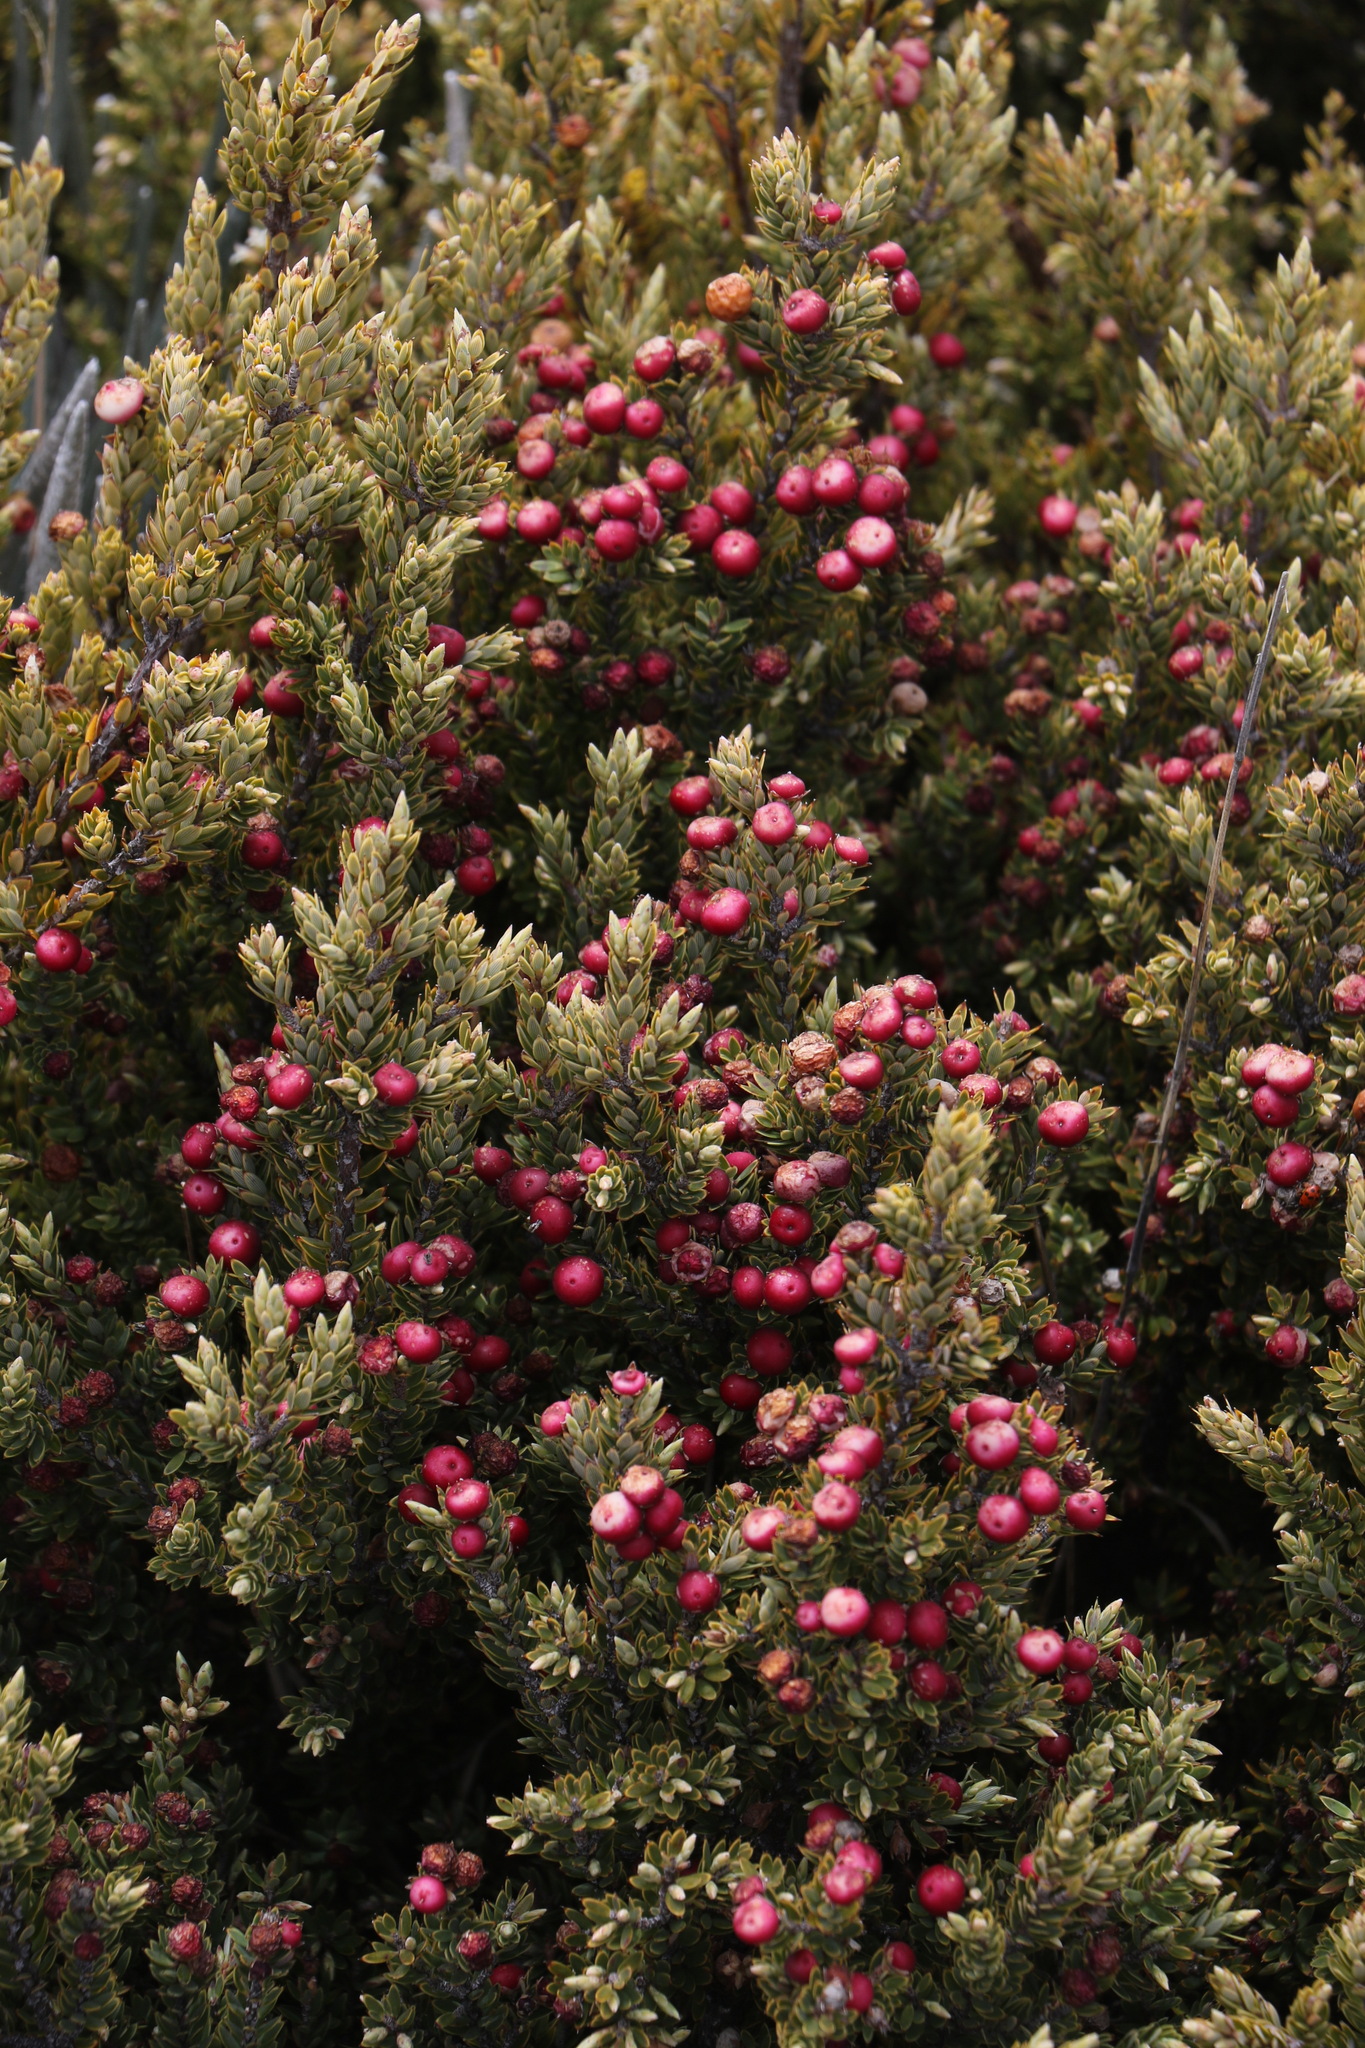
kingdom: Plantae
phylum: Tracheophyta
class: Magnoliopsida
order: Ericales
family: Ericaceae
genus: Leptecophylla
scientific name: Leptecophylla tameiameiae
